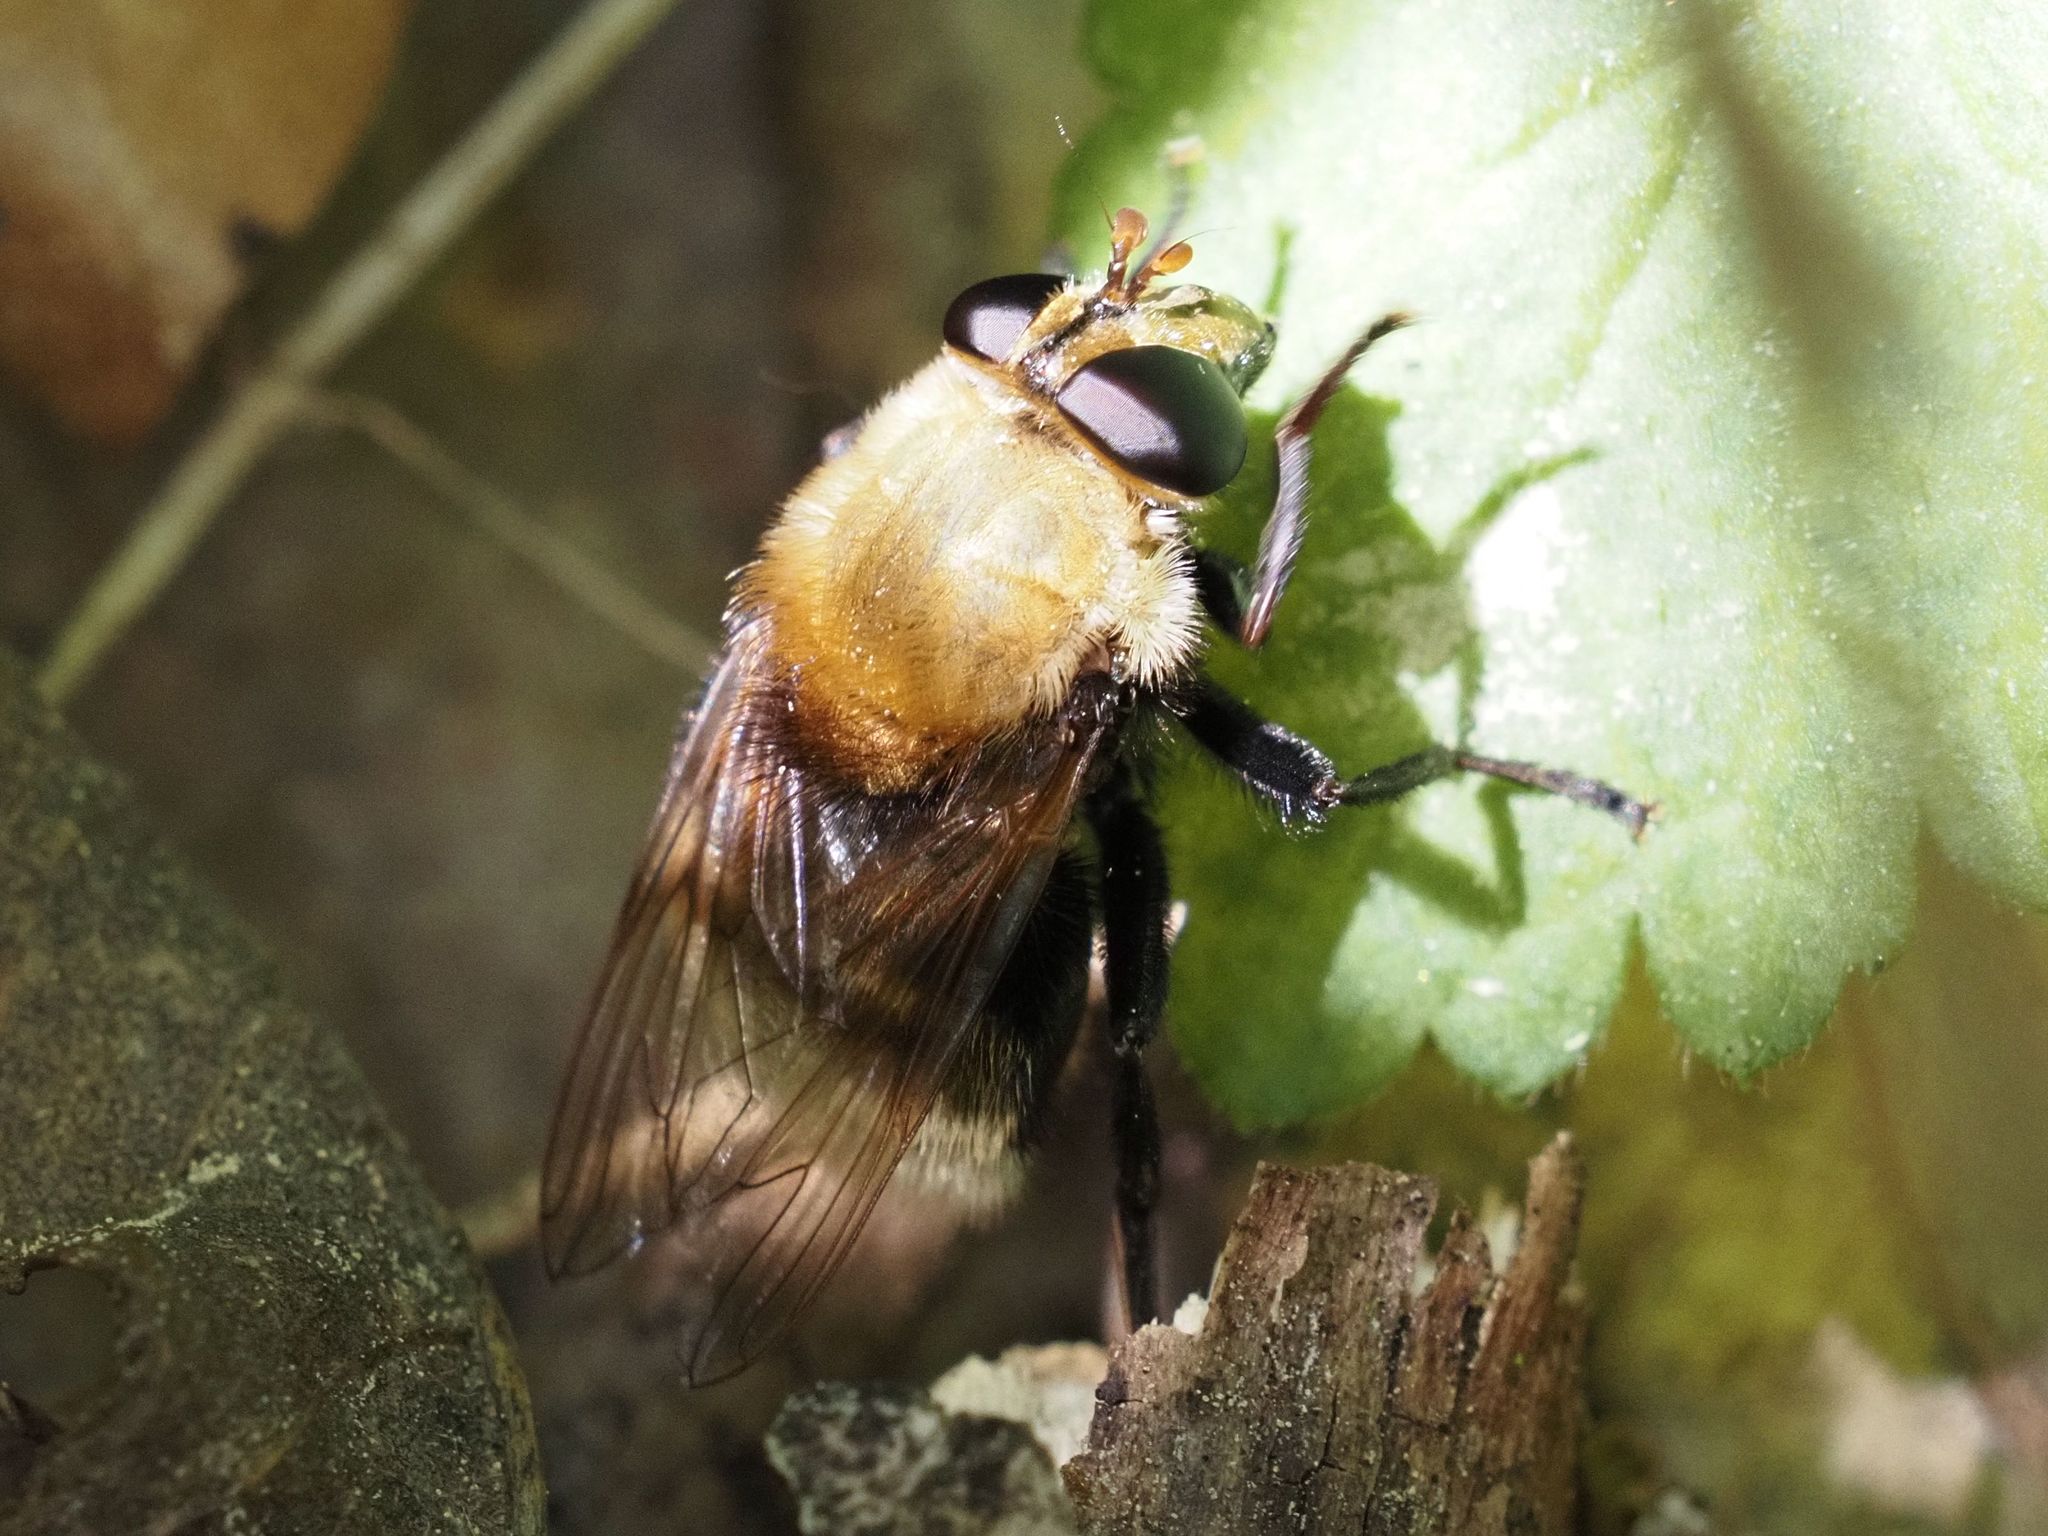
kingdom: Animalia
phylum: Arthropoda
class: Insecta
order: Diptera
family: Syrphidae
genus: Criorhina
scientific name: Criorhina berberina
